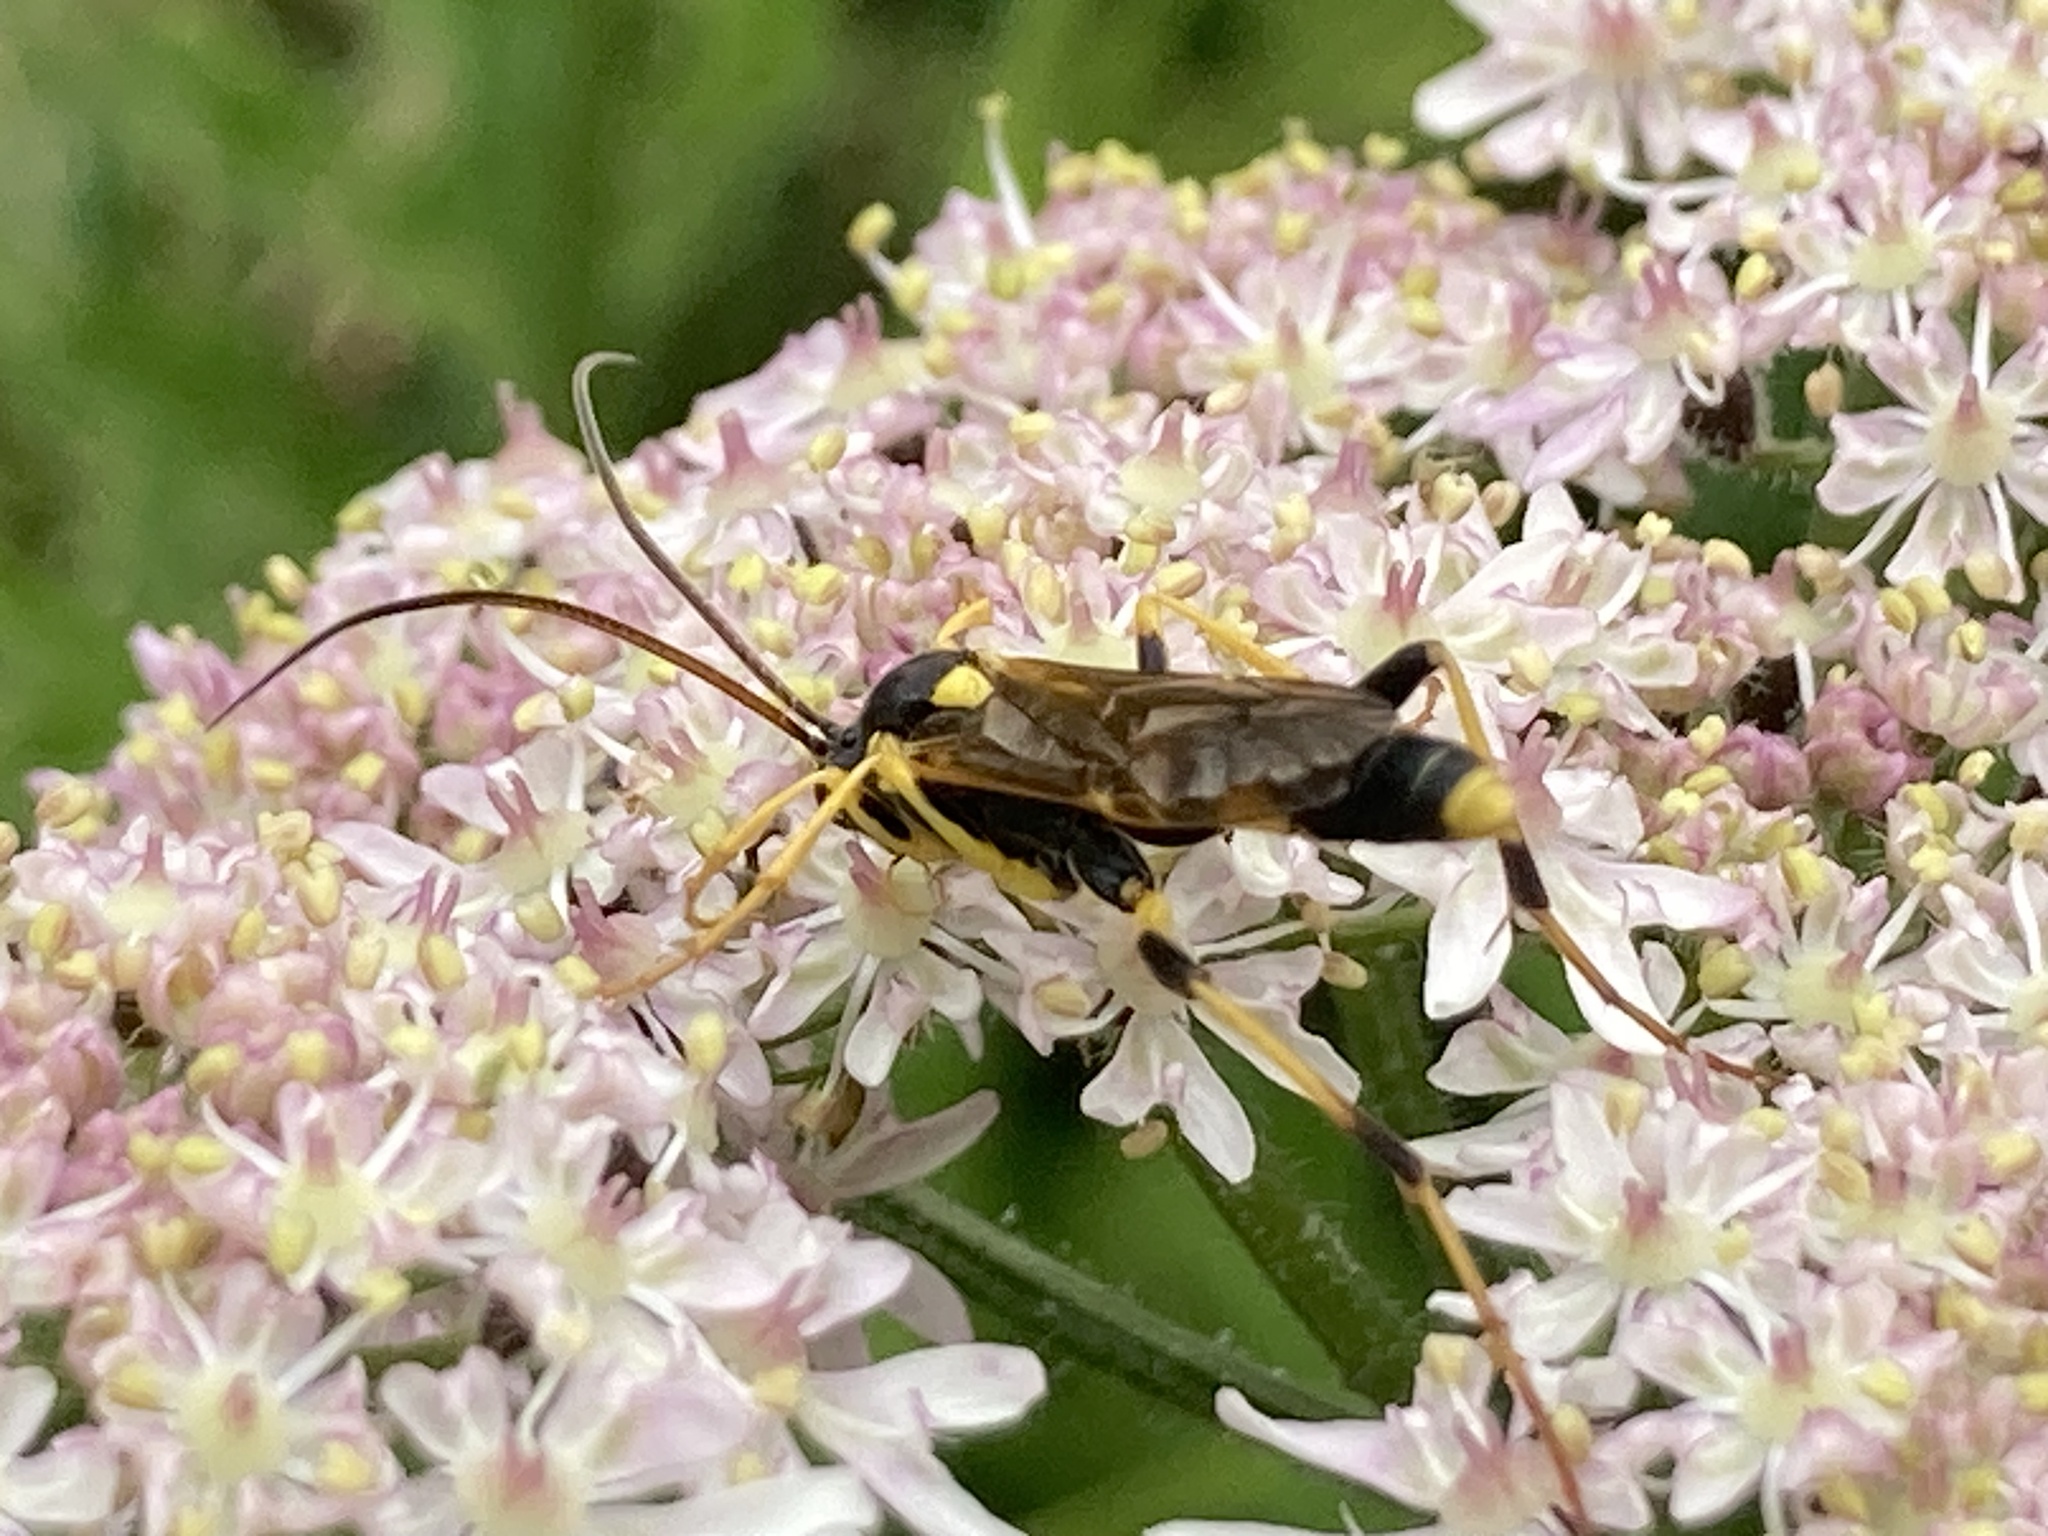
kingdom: Animalia
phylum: Arthropoda
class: Insecta
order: Hymenoptera
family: Ichneumonidae
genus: Amblyteles
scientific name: Amblyteles armatorius
